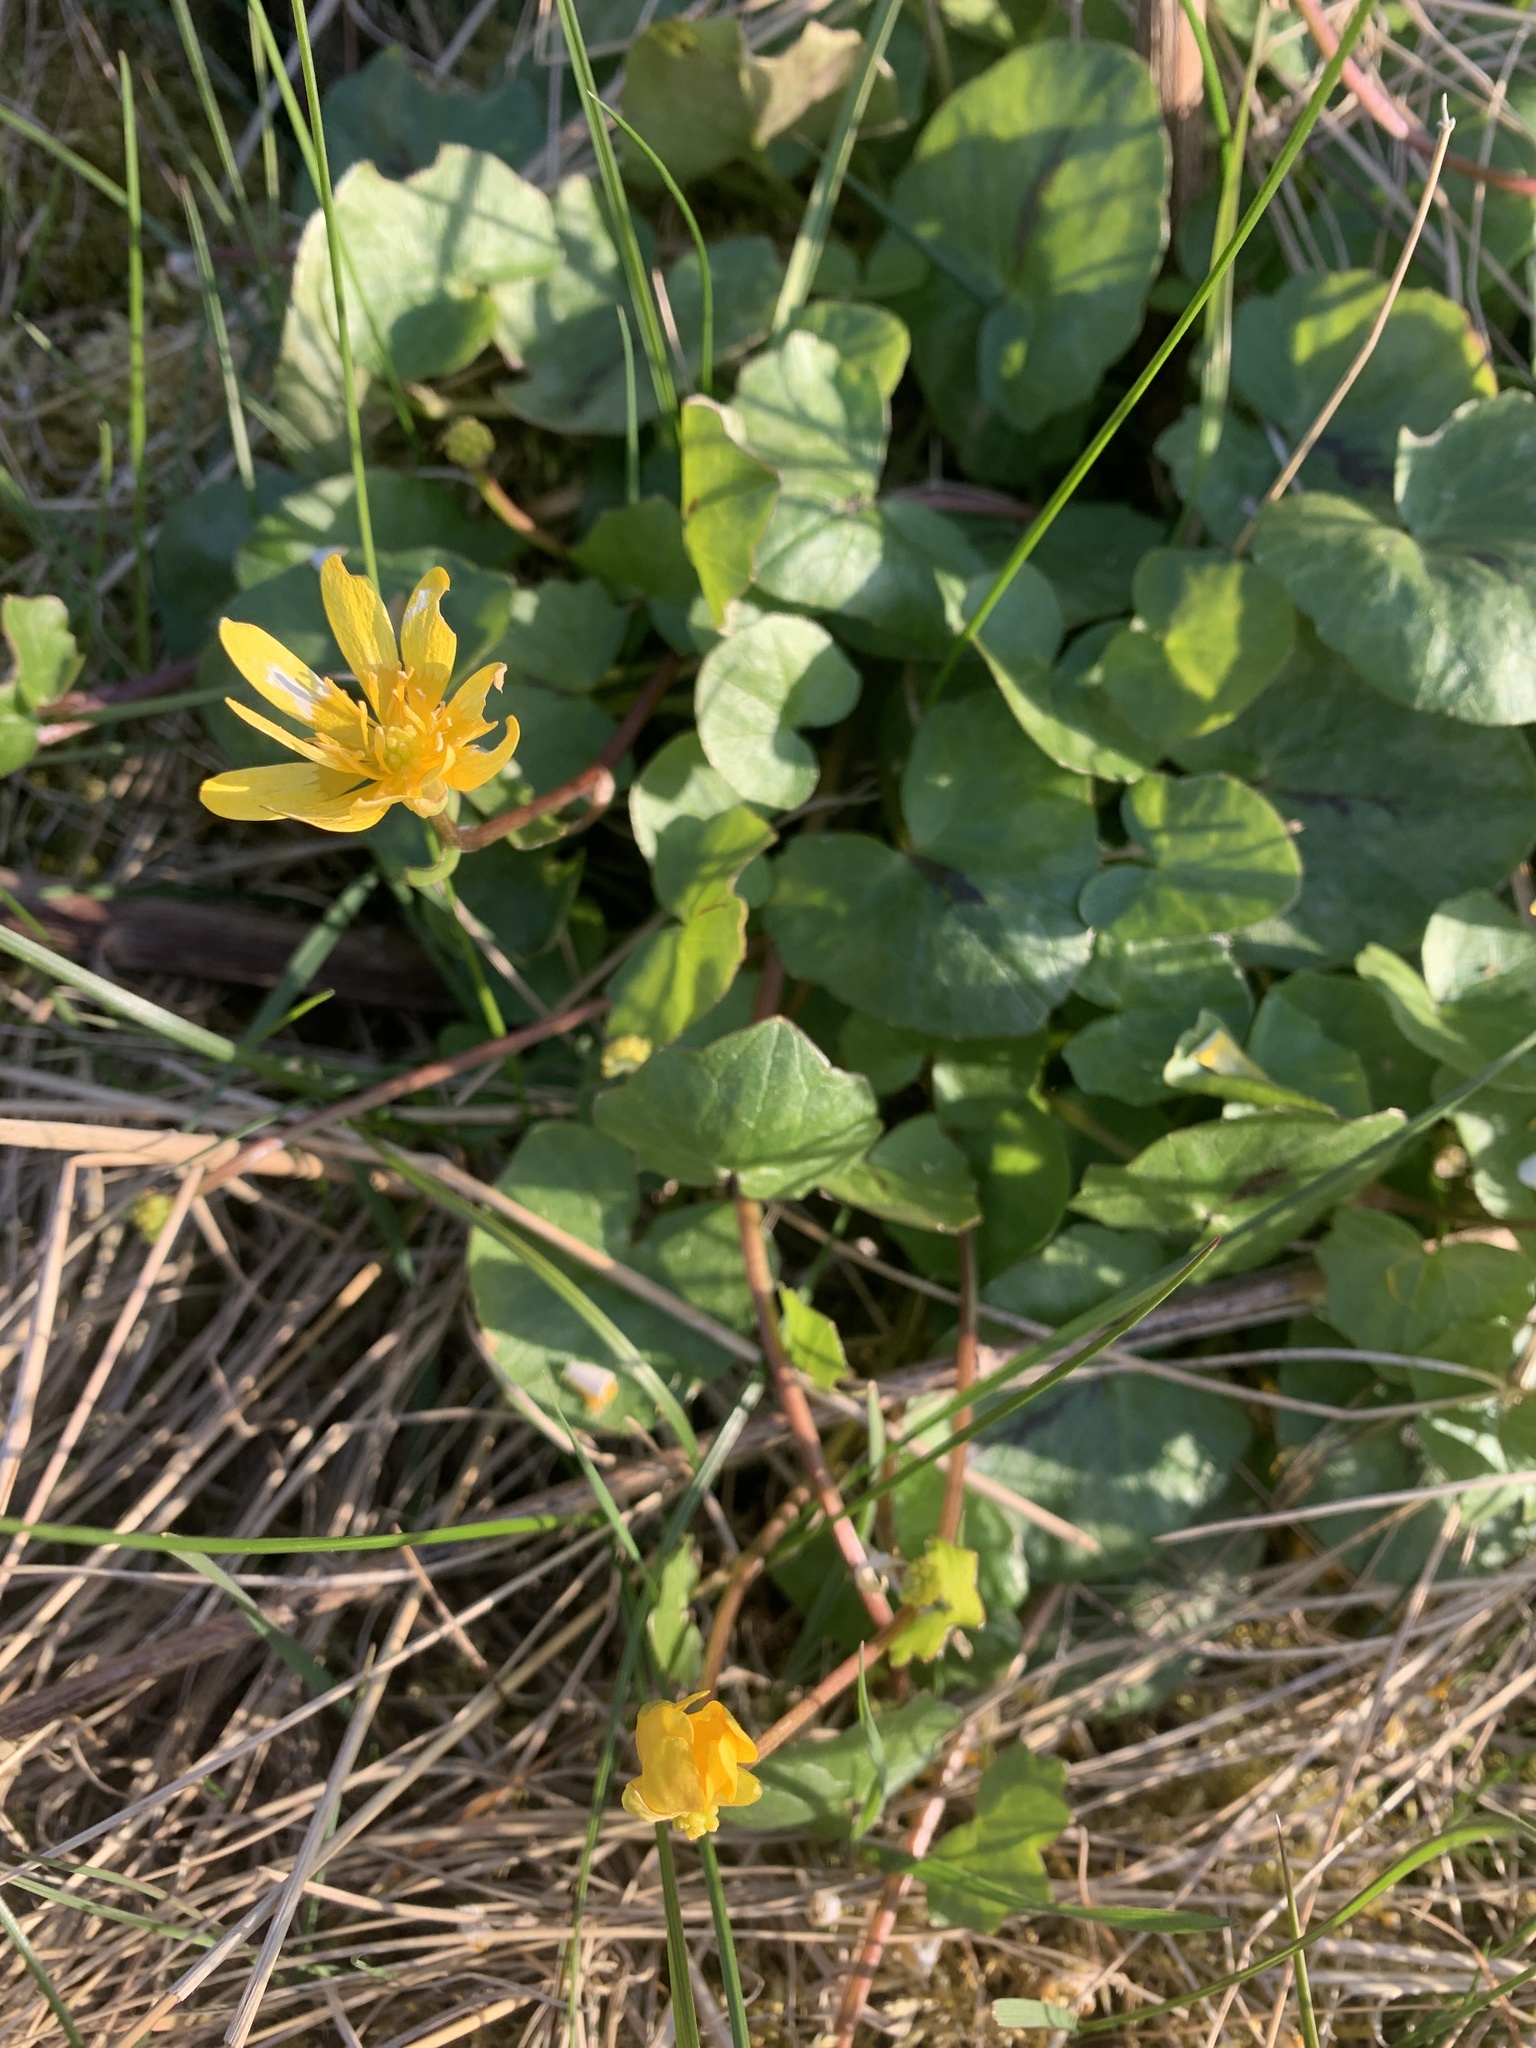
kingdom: Plantae
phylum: Tracheophyta
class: Magnoliopsida
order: Ranunculales
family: Ranunculaceae
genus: Ficaria
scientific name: Ficaria verna
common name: Lesser celandine
